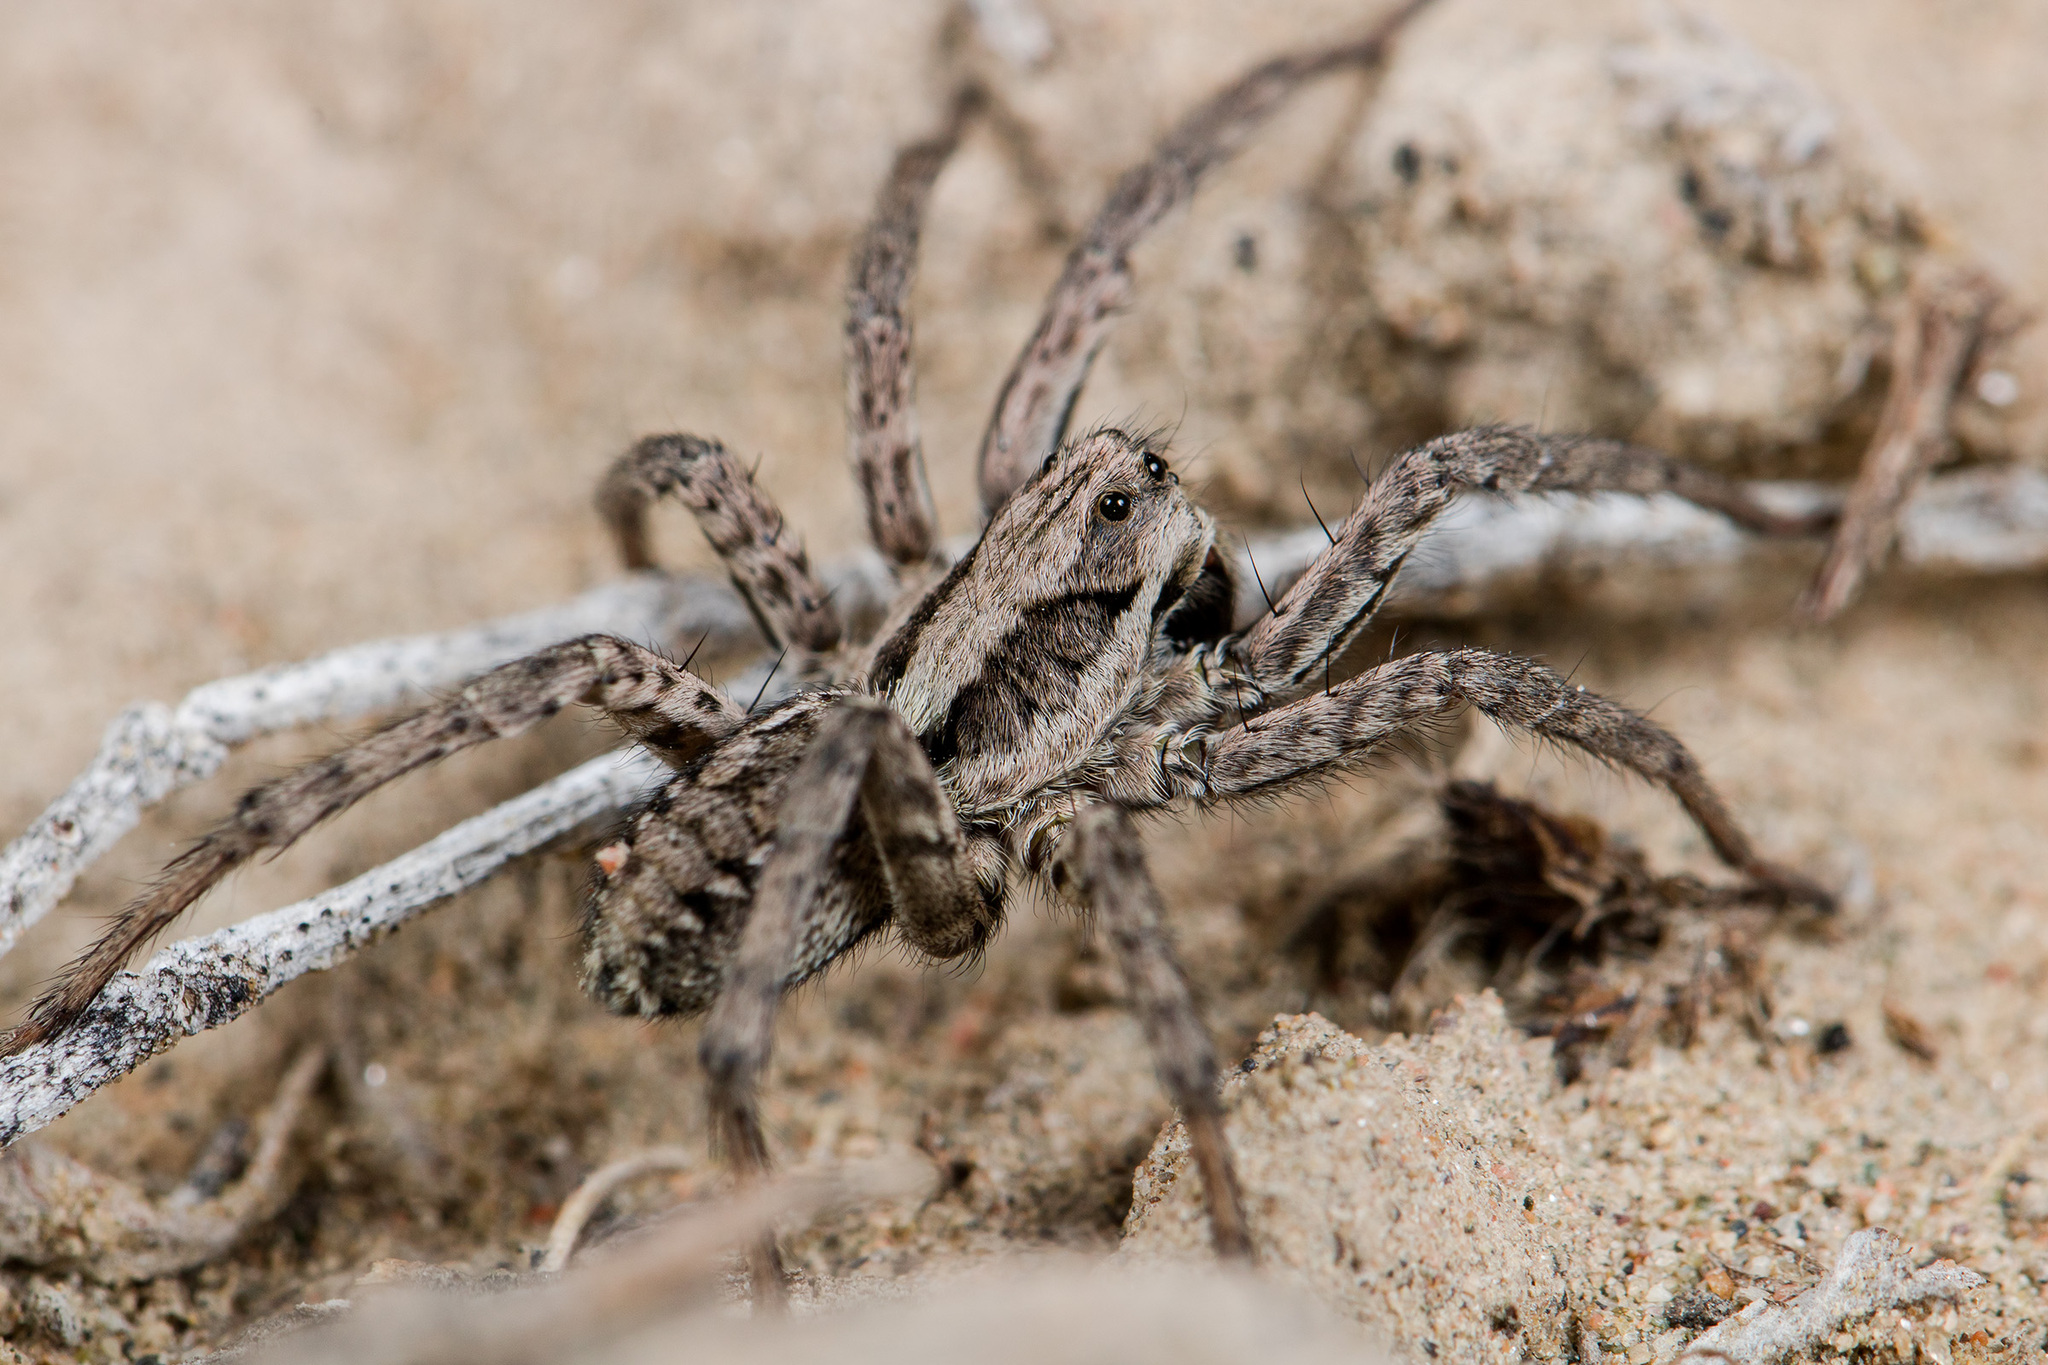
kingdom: Animalia
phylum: Arthropoda
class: Arachnida
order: Araneae
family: Lycosidae
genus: Alopecosa
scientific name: Alopecosa fedotovi
